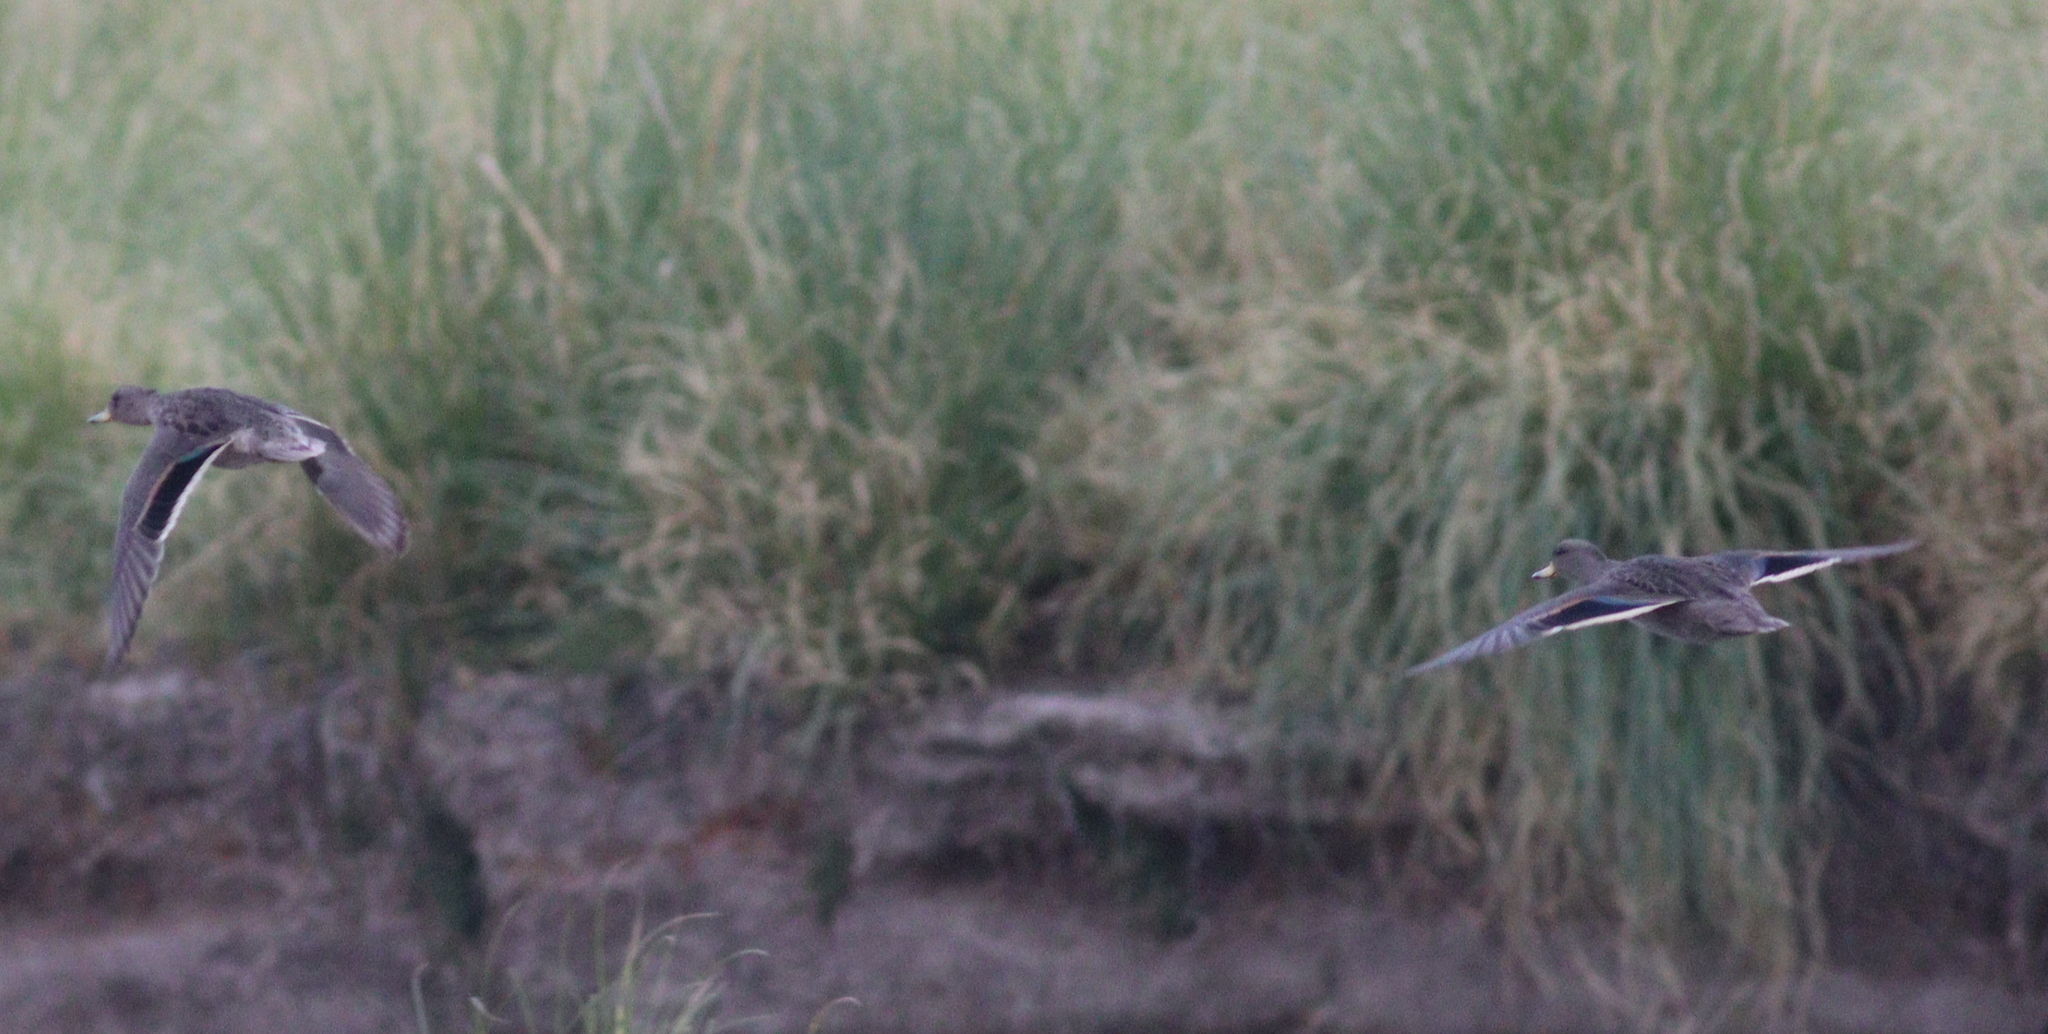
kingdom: Animalia
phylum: Chordata
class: Aves
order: Anseriformes
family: Anatidae
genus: Anas
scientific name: Anas flavirostris
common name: Yellow-billed teal
